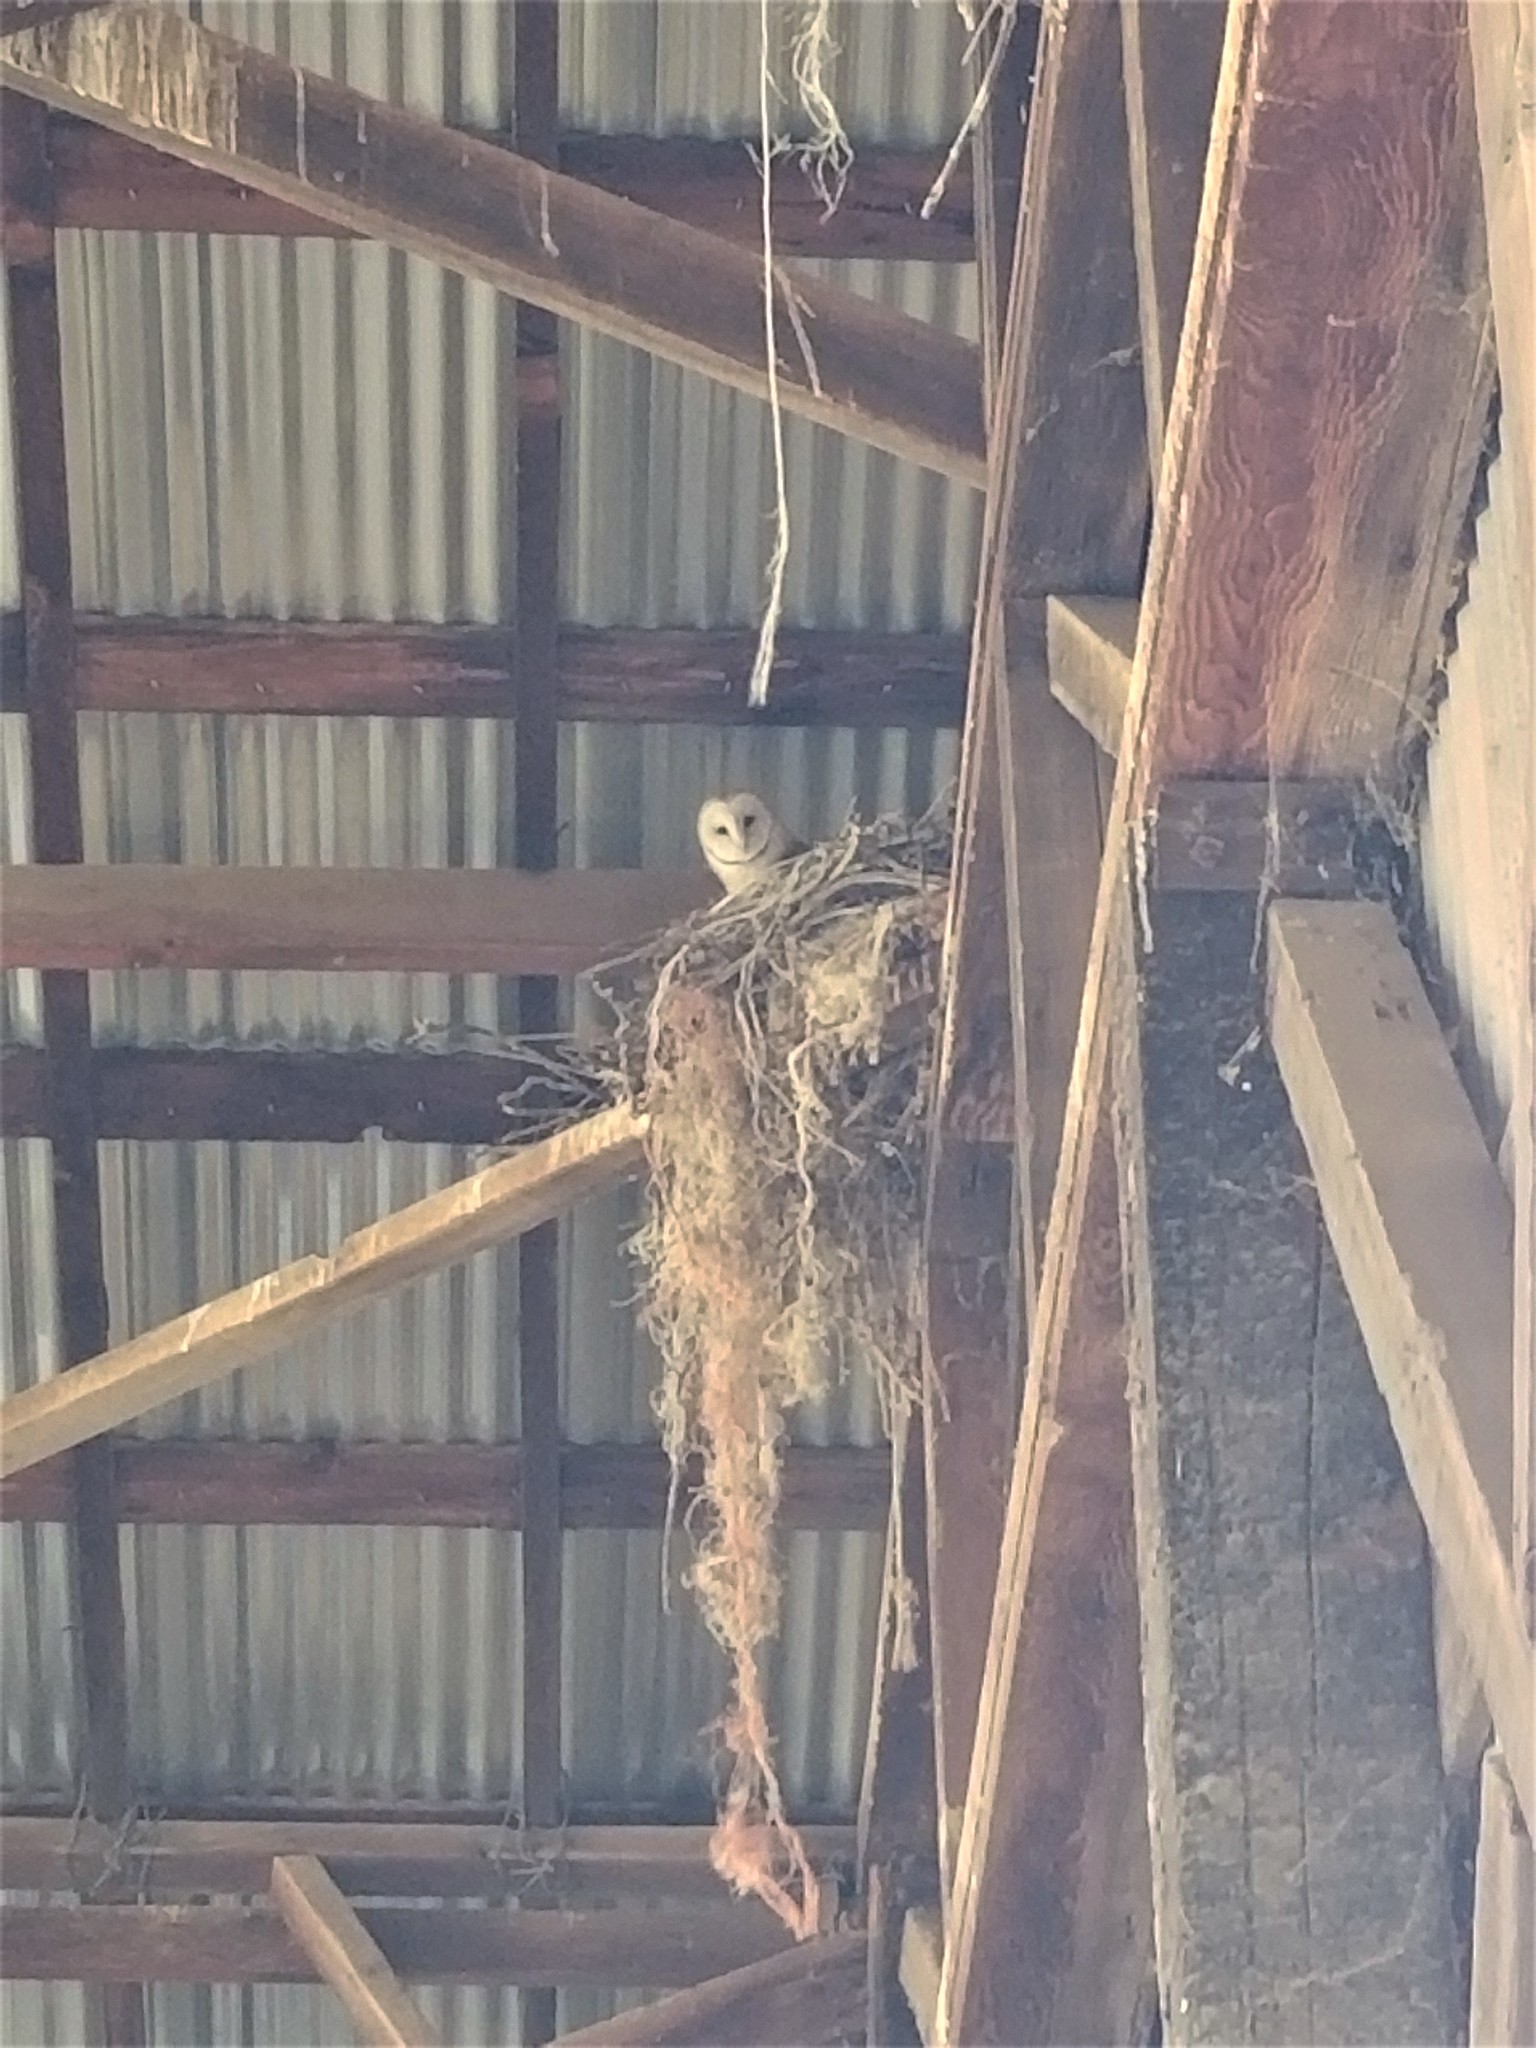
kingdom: Animalia
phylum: Chordata
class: Aves
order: Strigiformes
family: Tytonidae
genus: Tyto
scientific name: Tyto alba
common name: Barn owl
